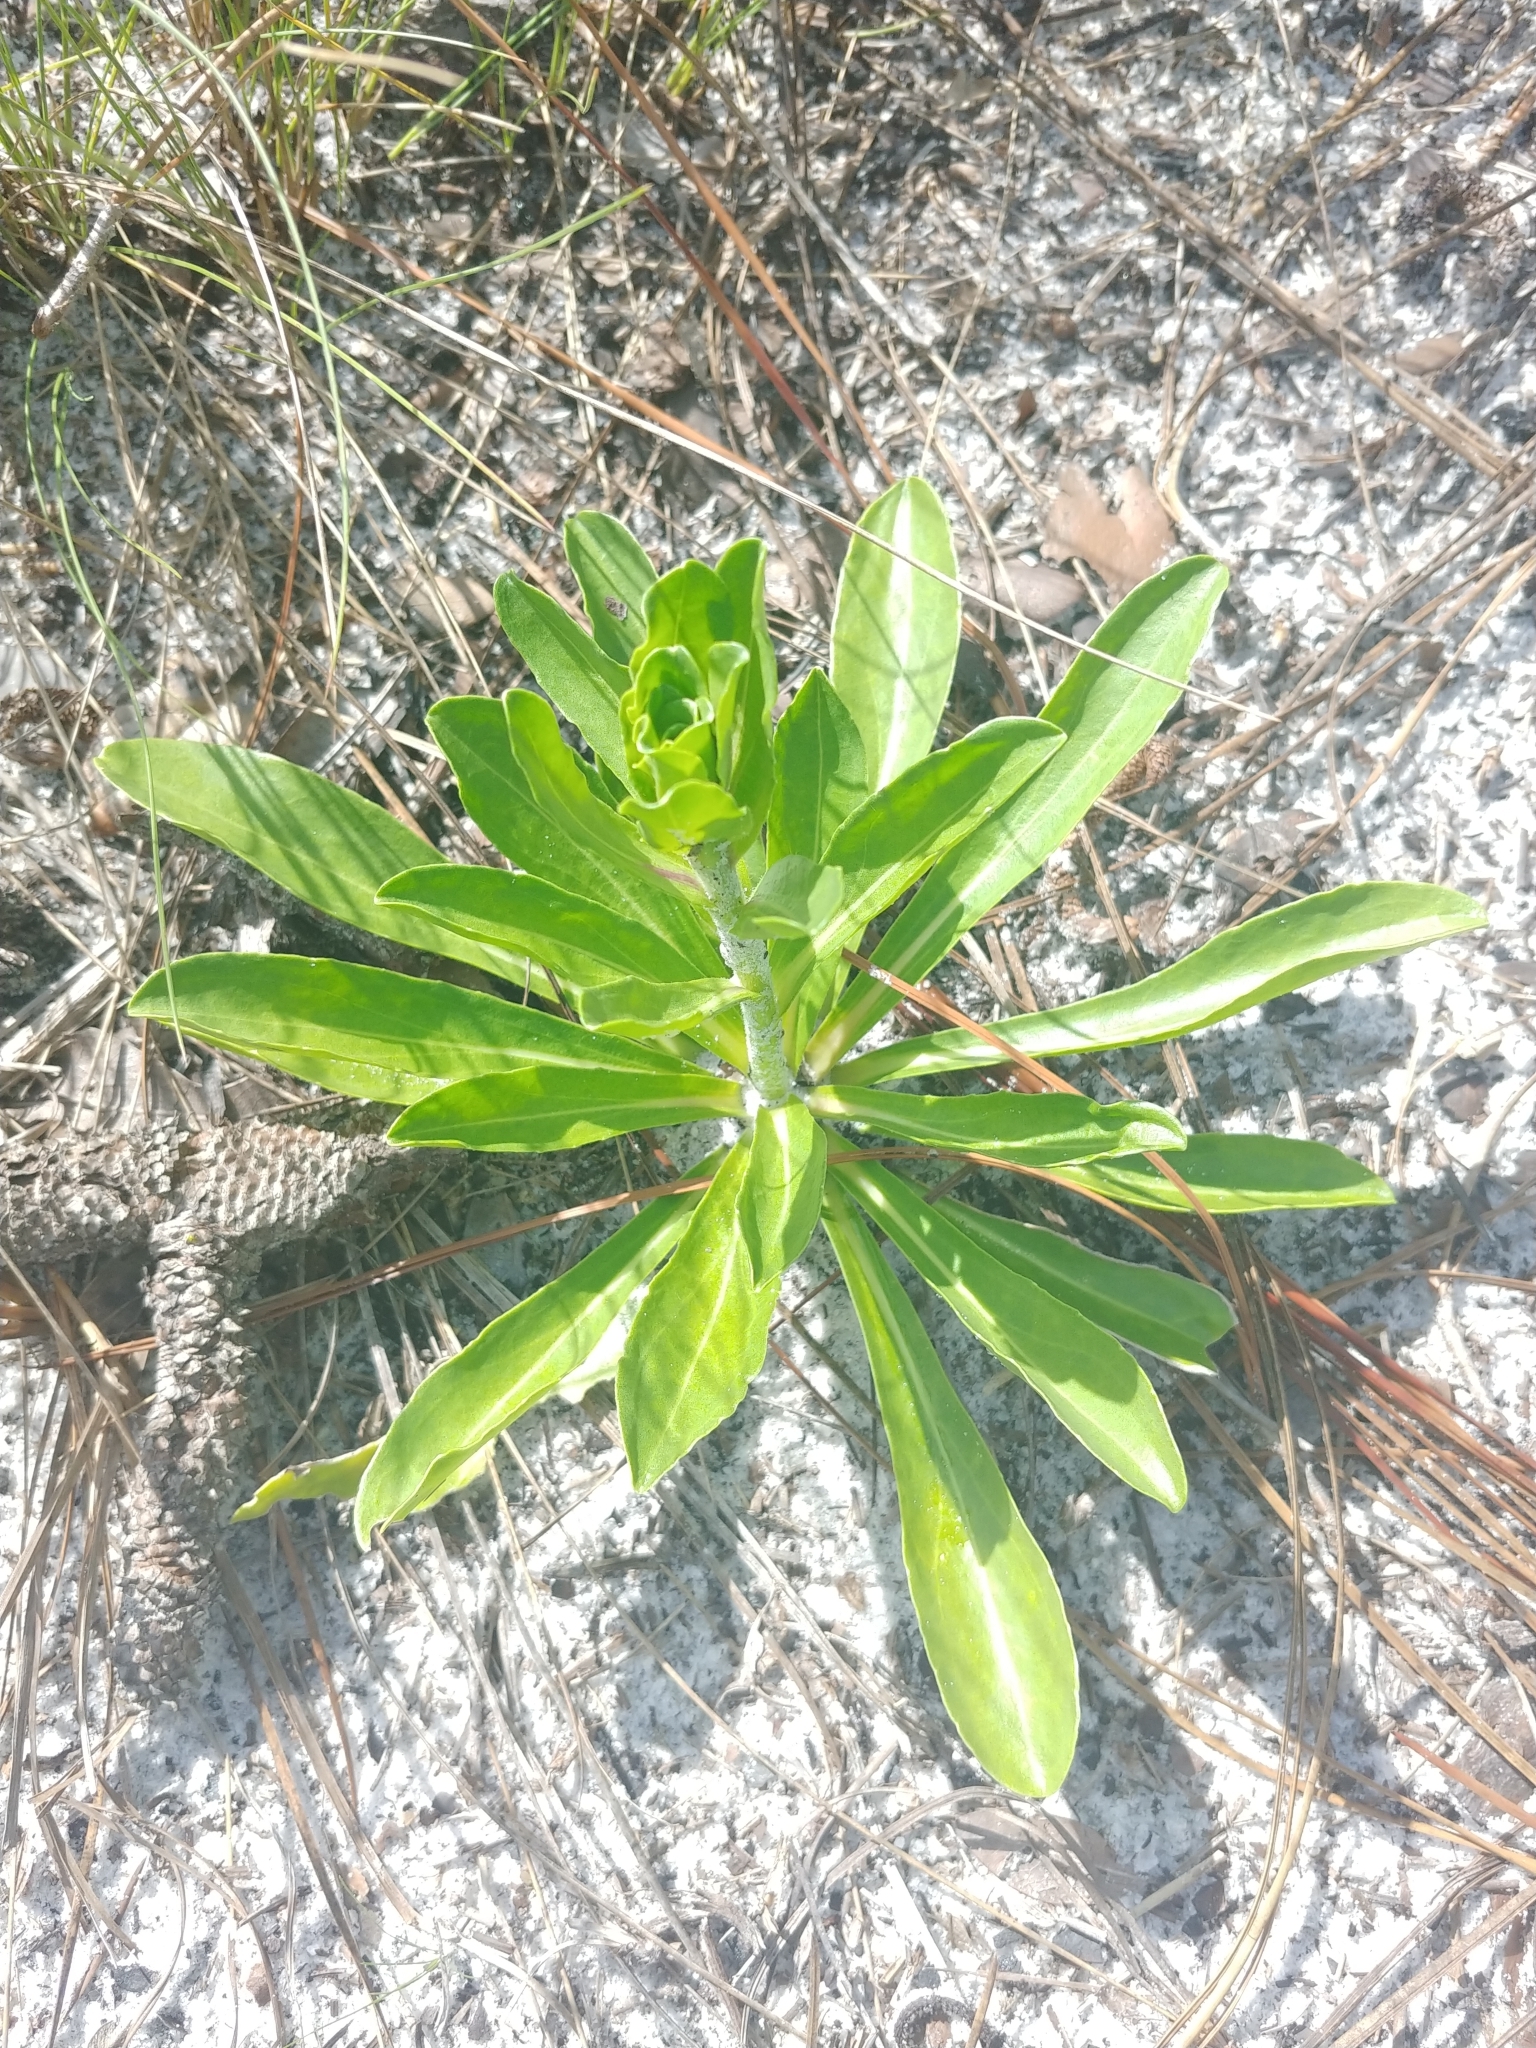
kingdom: Plantae
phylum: Tracheophyta
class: Magnoliopsida
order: Asterales
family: Asteraceae
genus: Carphephorus
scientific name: Carphephorus corymbosus
